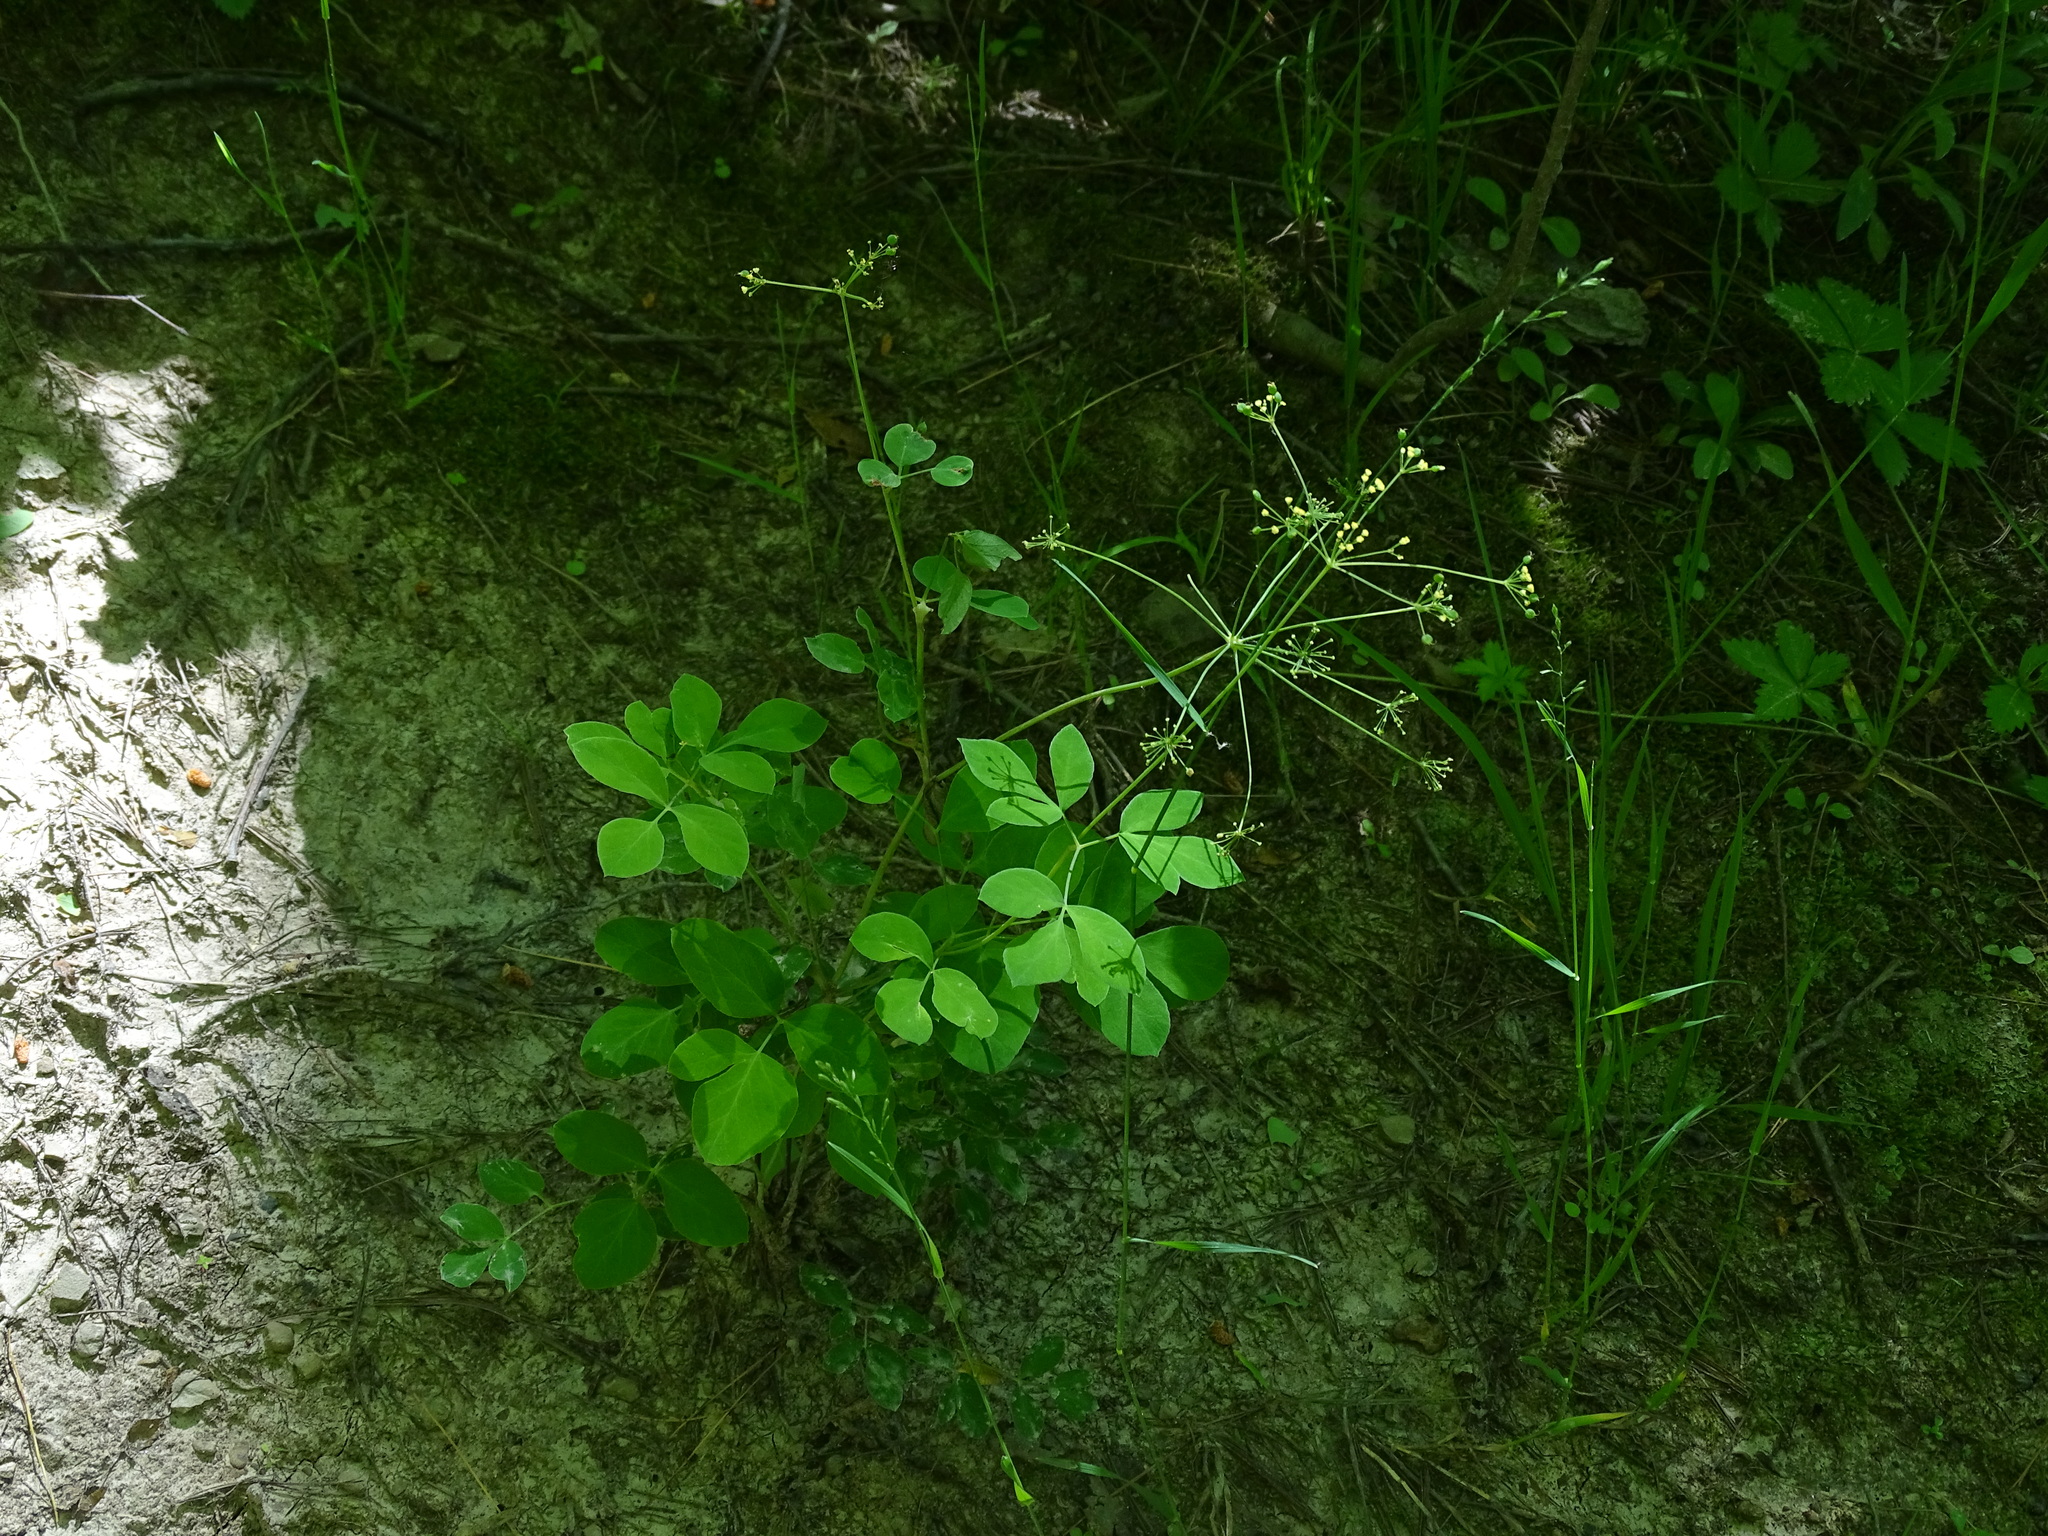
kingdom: Plantae
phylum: Tracheophyta
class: Magnoliopsida
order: Apiales
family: Apiaceae
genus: Taenidia
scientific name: Taenidia integerrima
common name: Golden alexander
